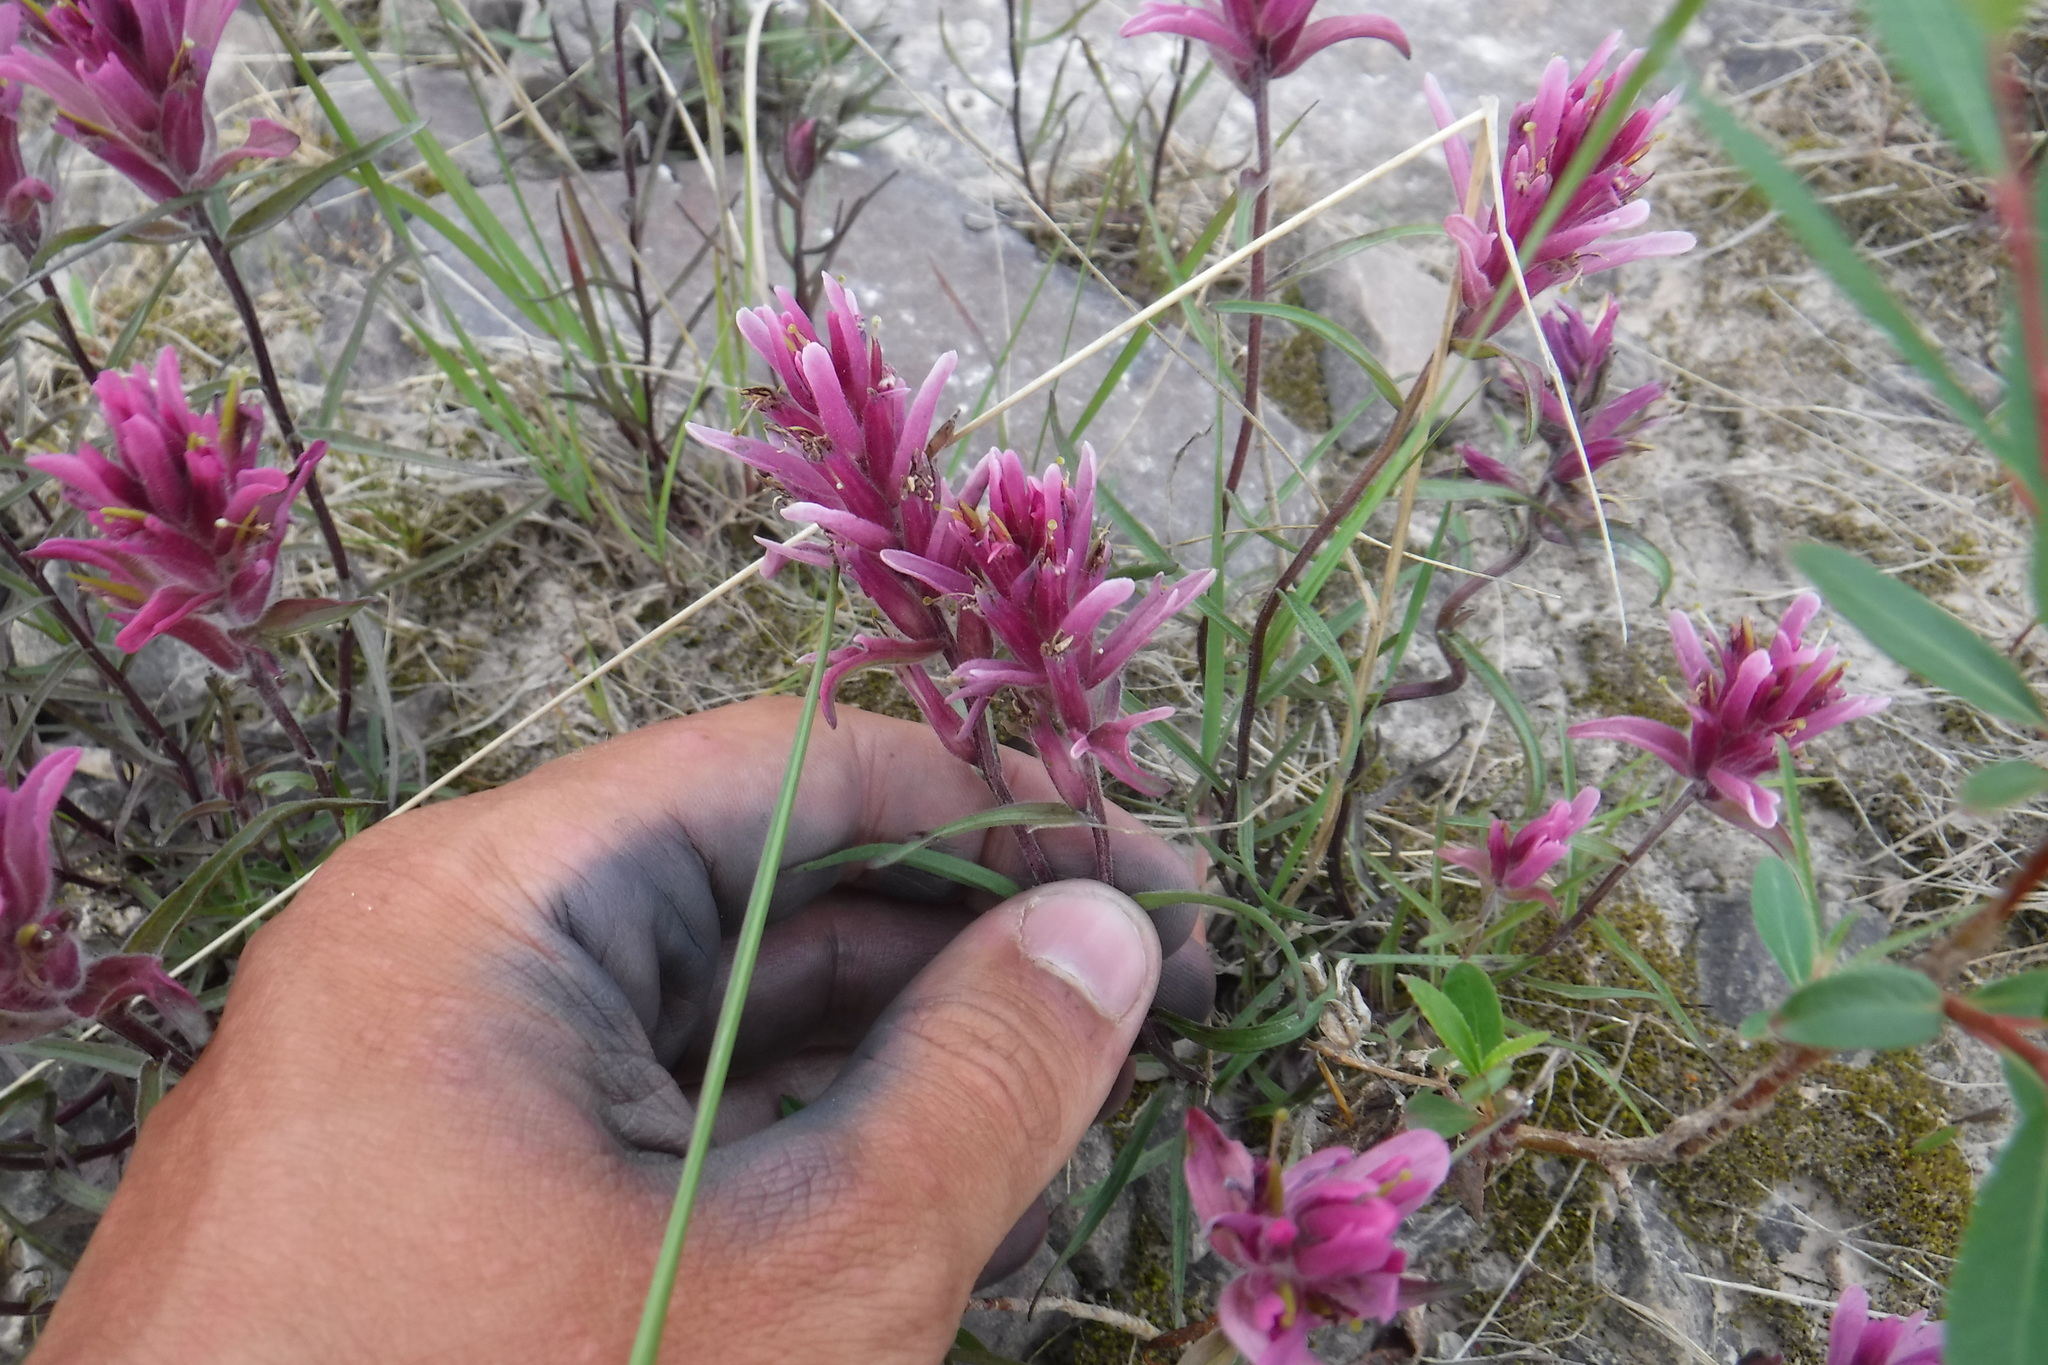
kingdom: Plantae
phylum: Tracheophyta
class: Magnoliopsida
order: Lamiales
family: Orobanchaceae
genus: Castilleja
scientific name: Castilleja elegans
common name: Elegant paintbrush
